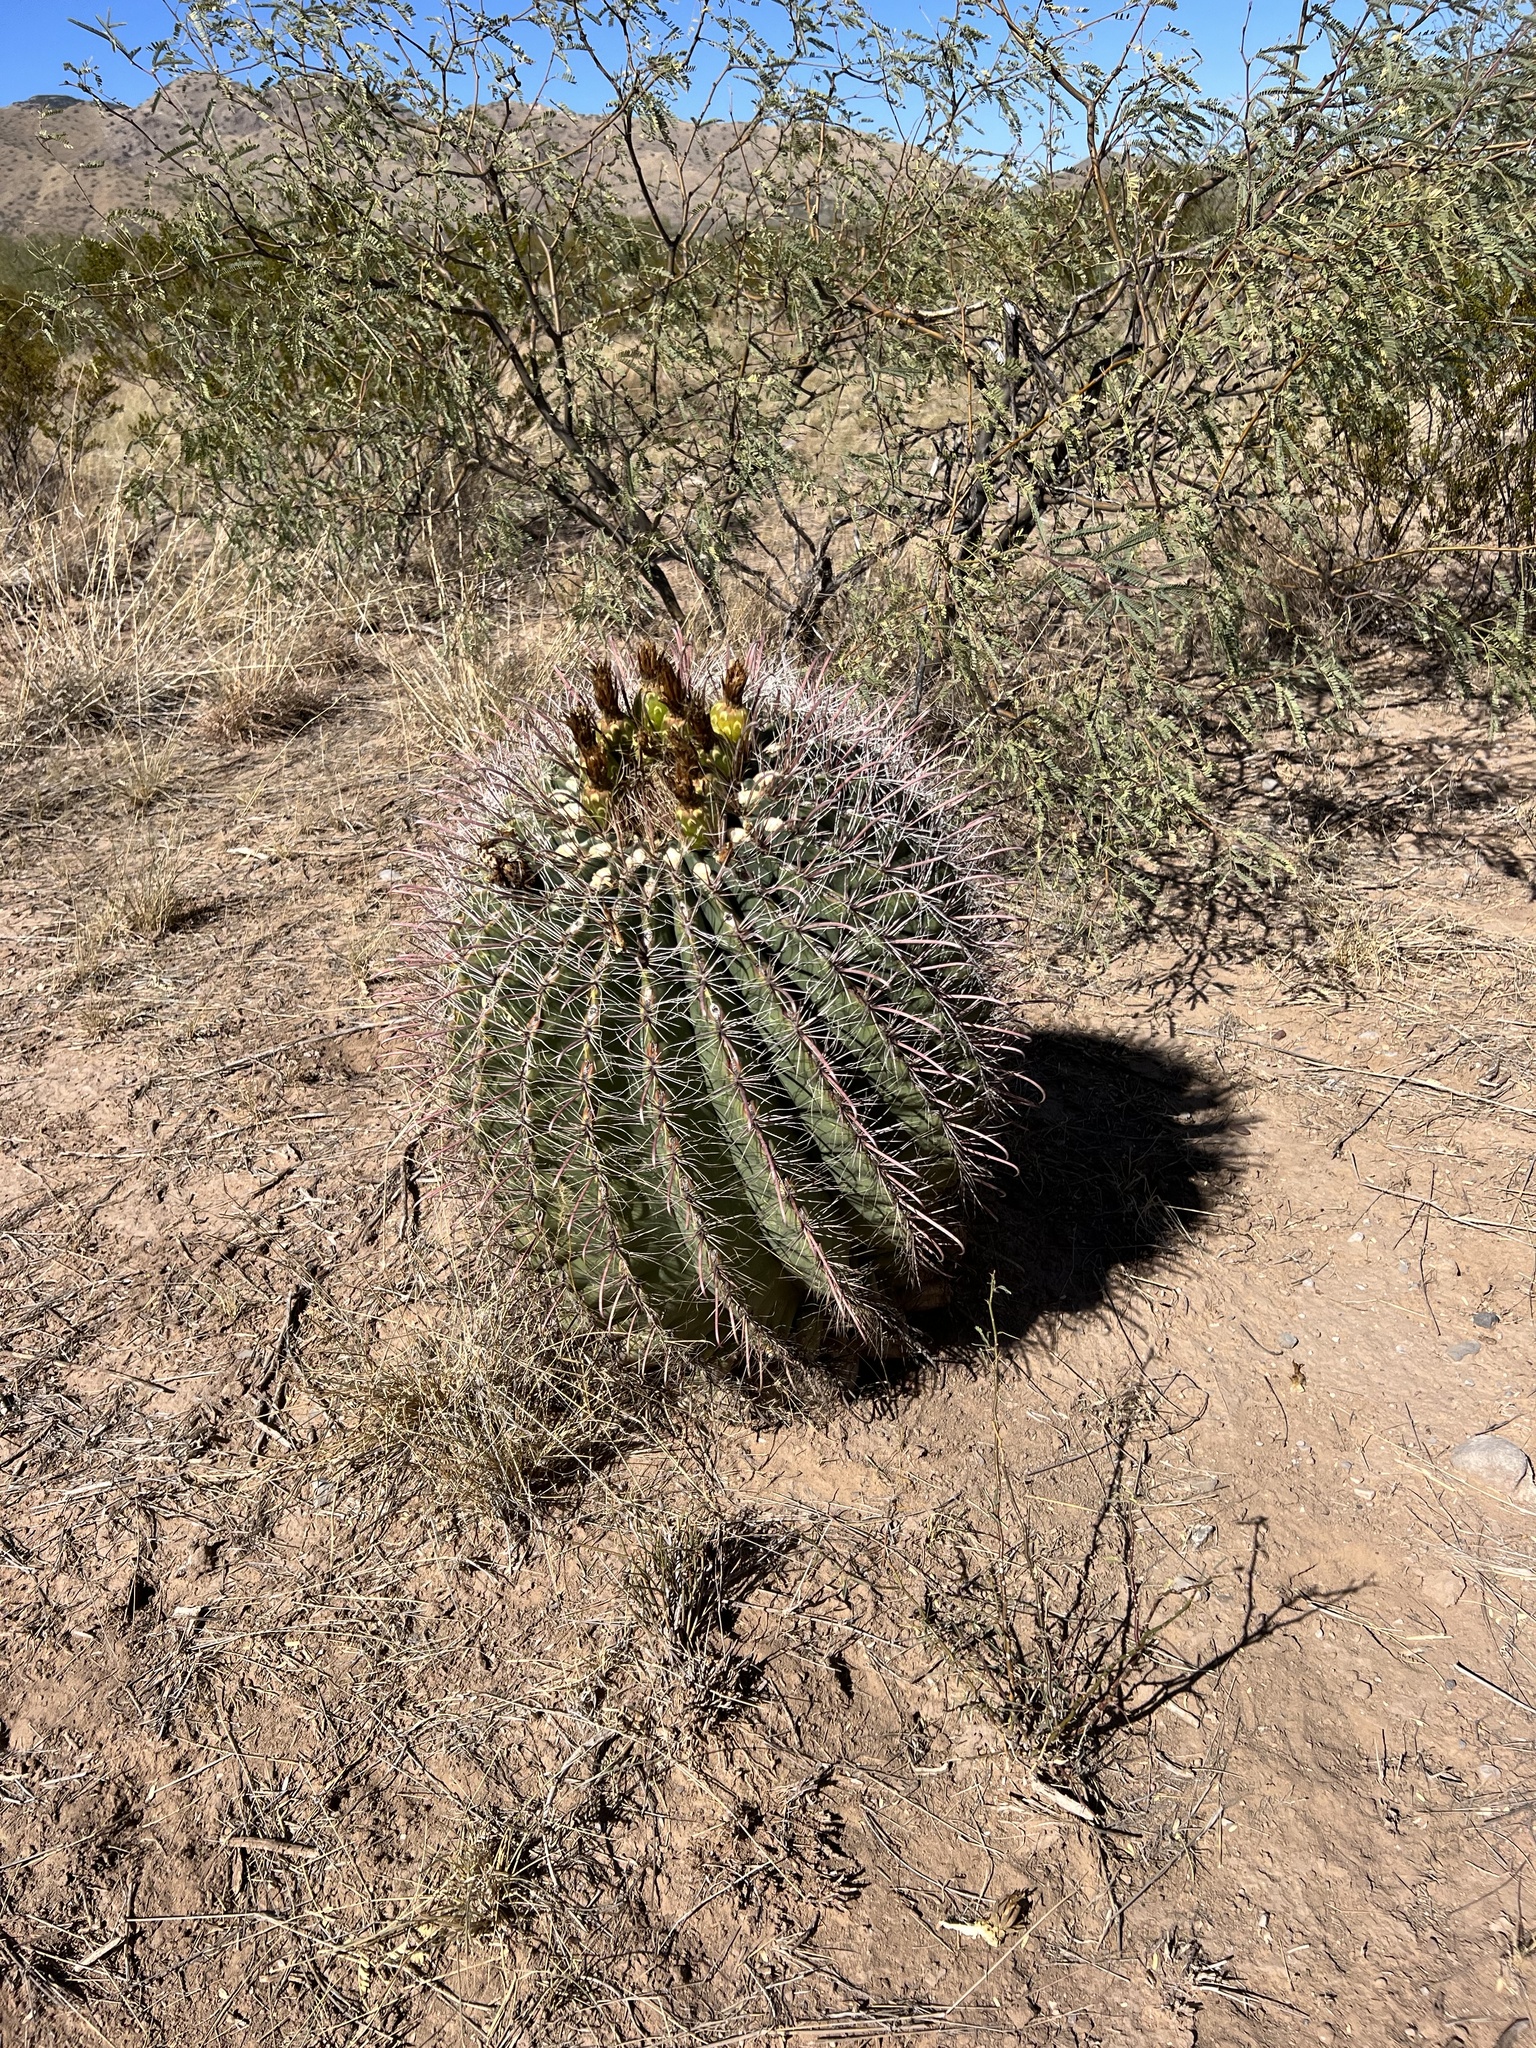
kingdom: Plantae
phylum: Tracheophyta
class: Magnoliopsida
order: Caryophyllales
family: Cactaceae
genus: Ferocactus
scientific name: Ferocactus wislizeni
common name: Candy barrel cactus
